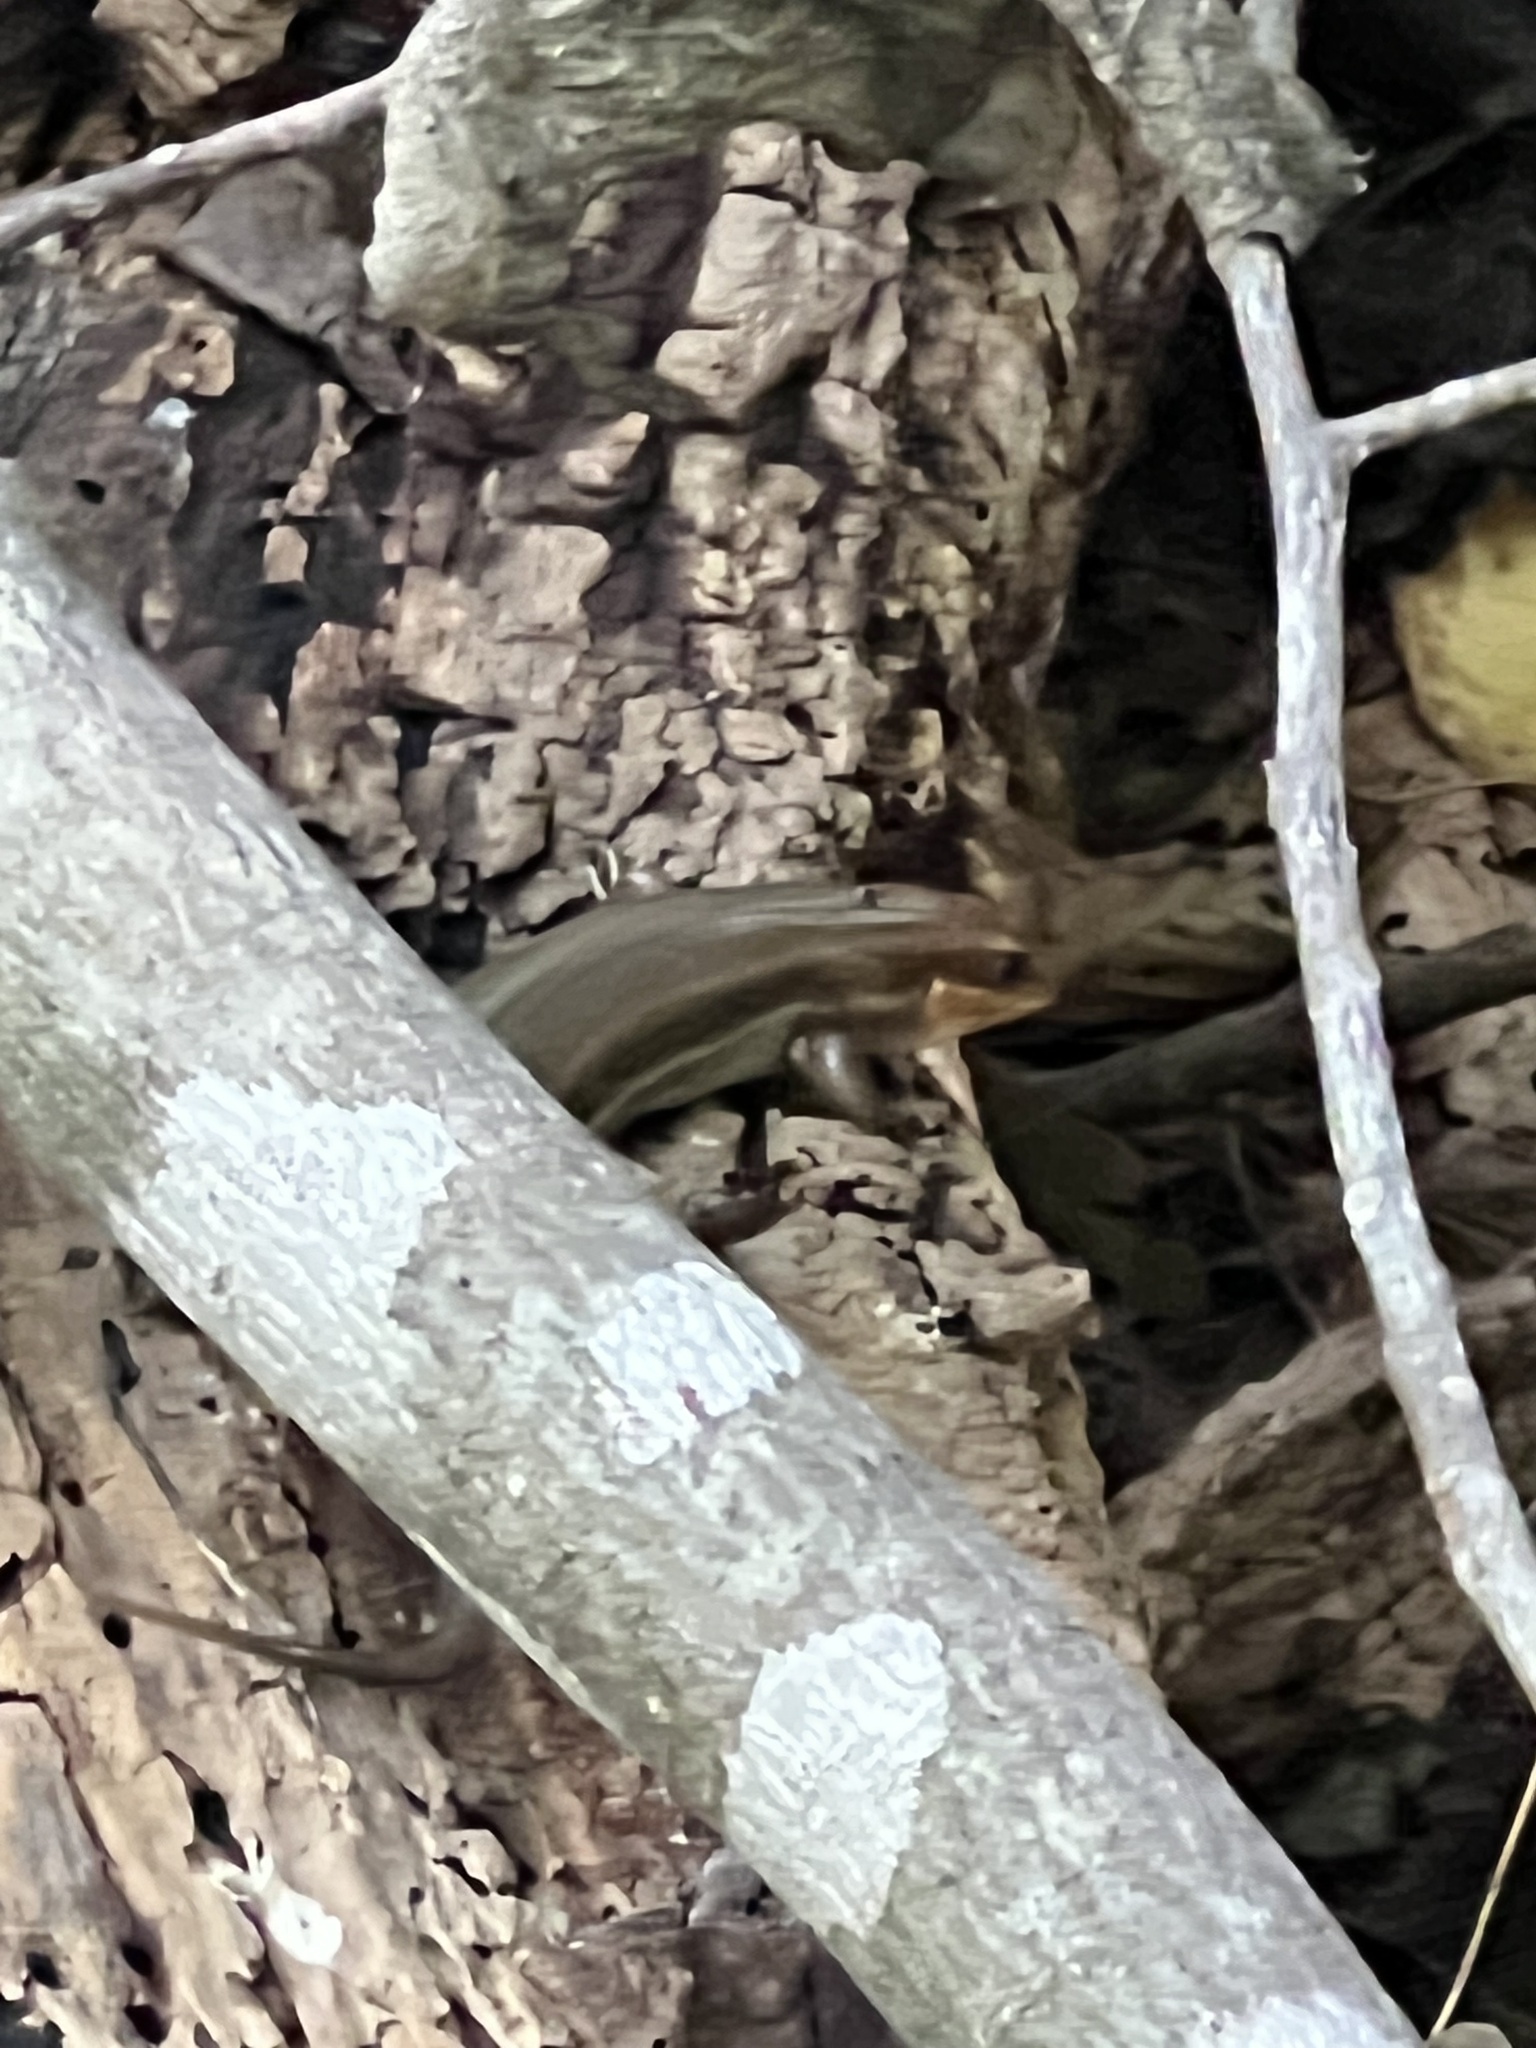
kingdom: Animalia
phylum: Chordata
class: Squamata
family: Scincidae
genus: Plestiodon
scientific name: Plestiodon laticeps
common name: Broadhead skink
